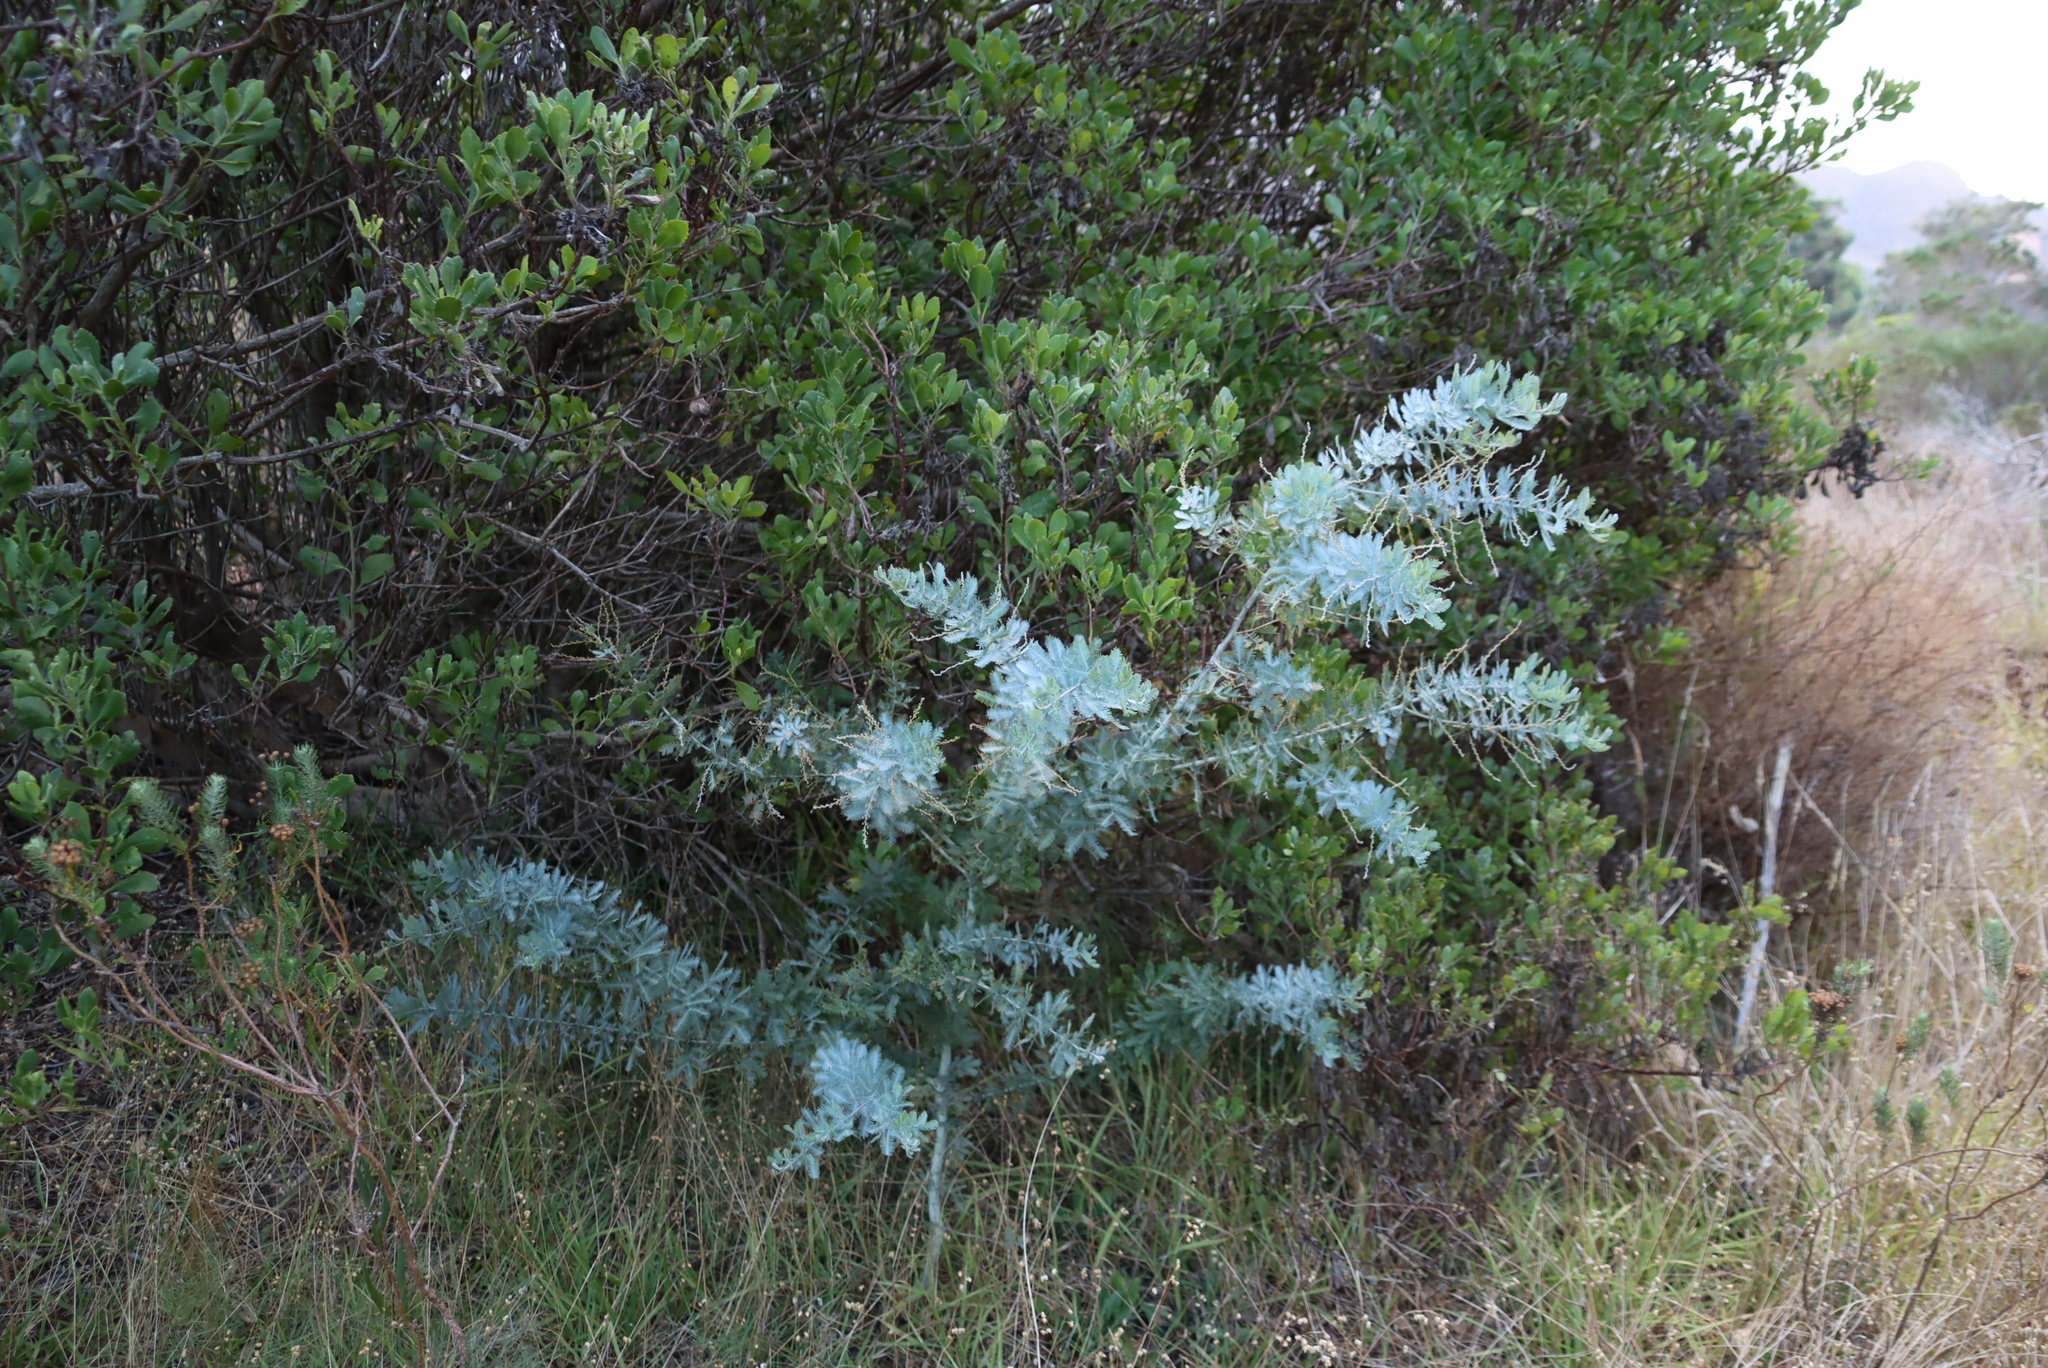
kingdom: Plantae
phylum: Tracheophyta
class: Magnoliopsida
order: Fabales
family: Fabaceae
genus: Acacia
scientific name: Acacia podalyriifolia
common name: Pearl wattle
